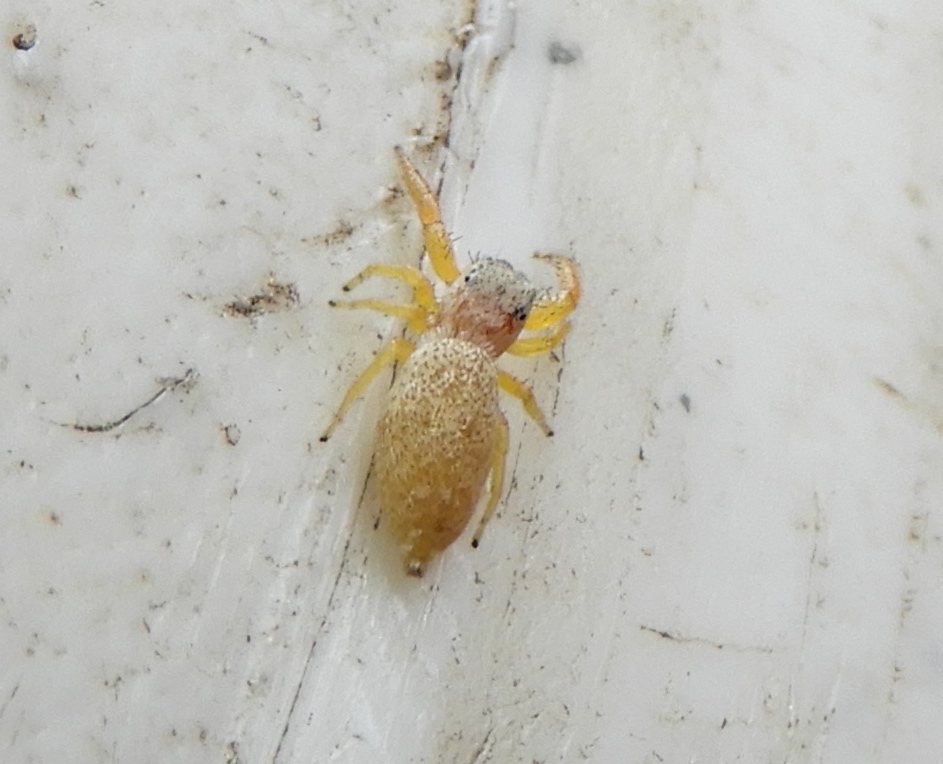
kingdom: Animalia
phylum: Arthropoda
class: Arachnida
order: Araneae
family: Salticidae
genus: Hentzia
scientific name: Hentzia palmarum
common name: Common hentz jumping spider
